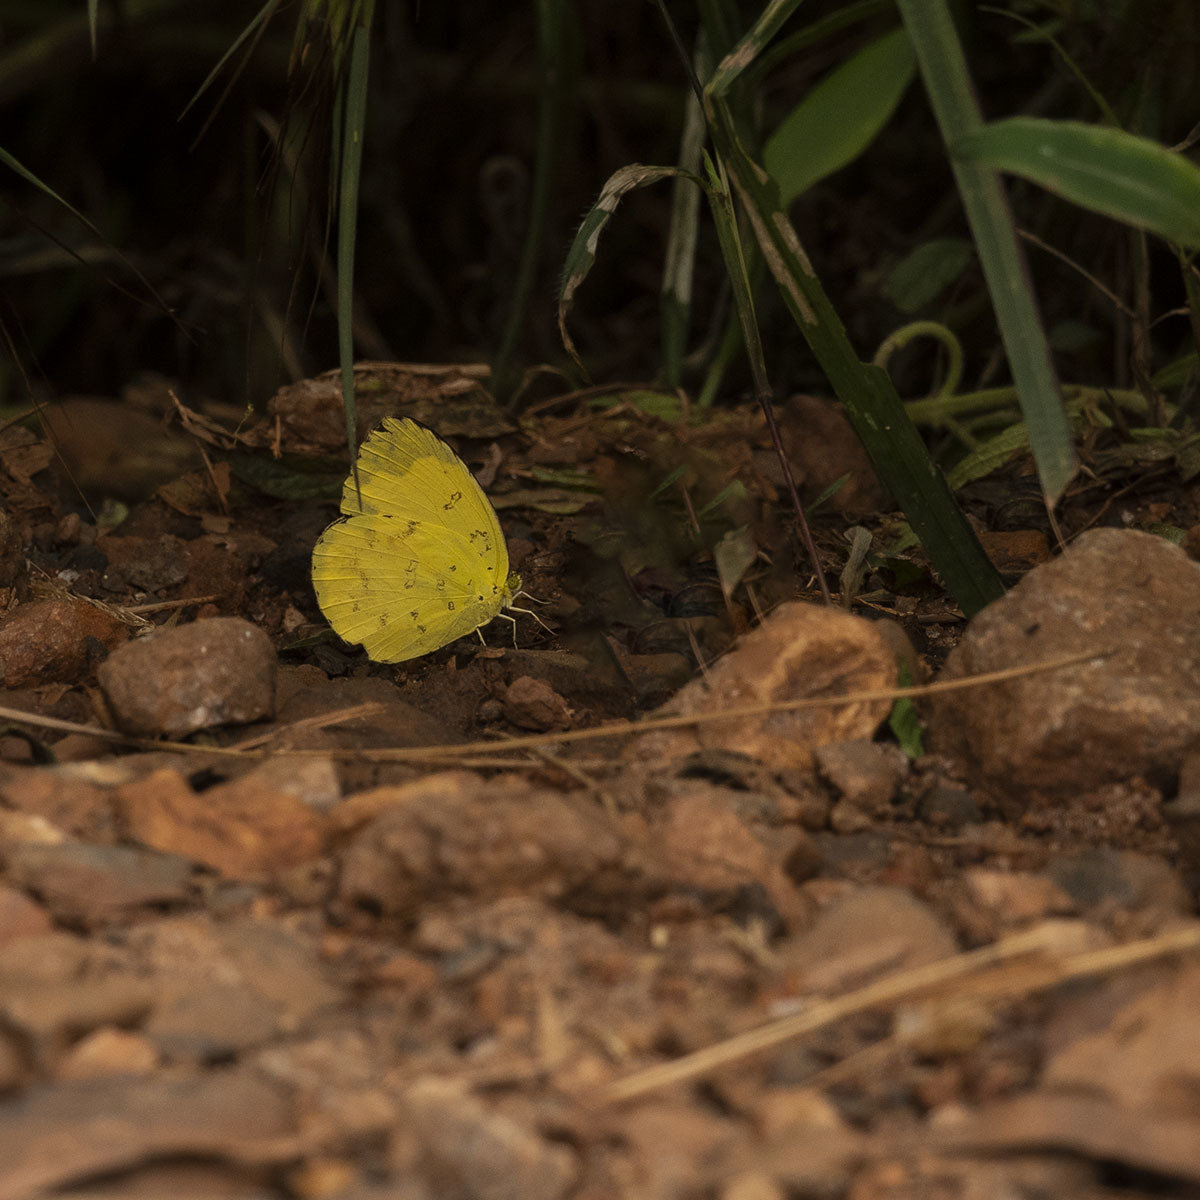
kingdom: Animalia
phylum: Arthropoda
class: Insecta
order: Lepidoptera
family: Pieridae
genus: Eurema
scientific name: Eurema blanda
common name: Three-spot grass yellow
